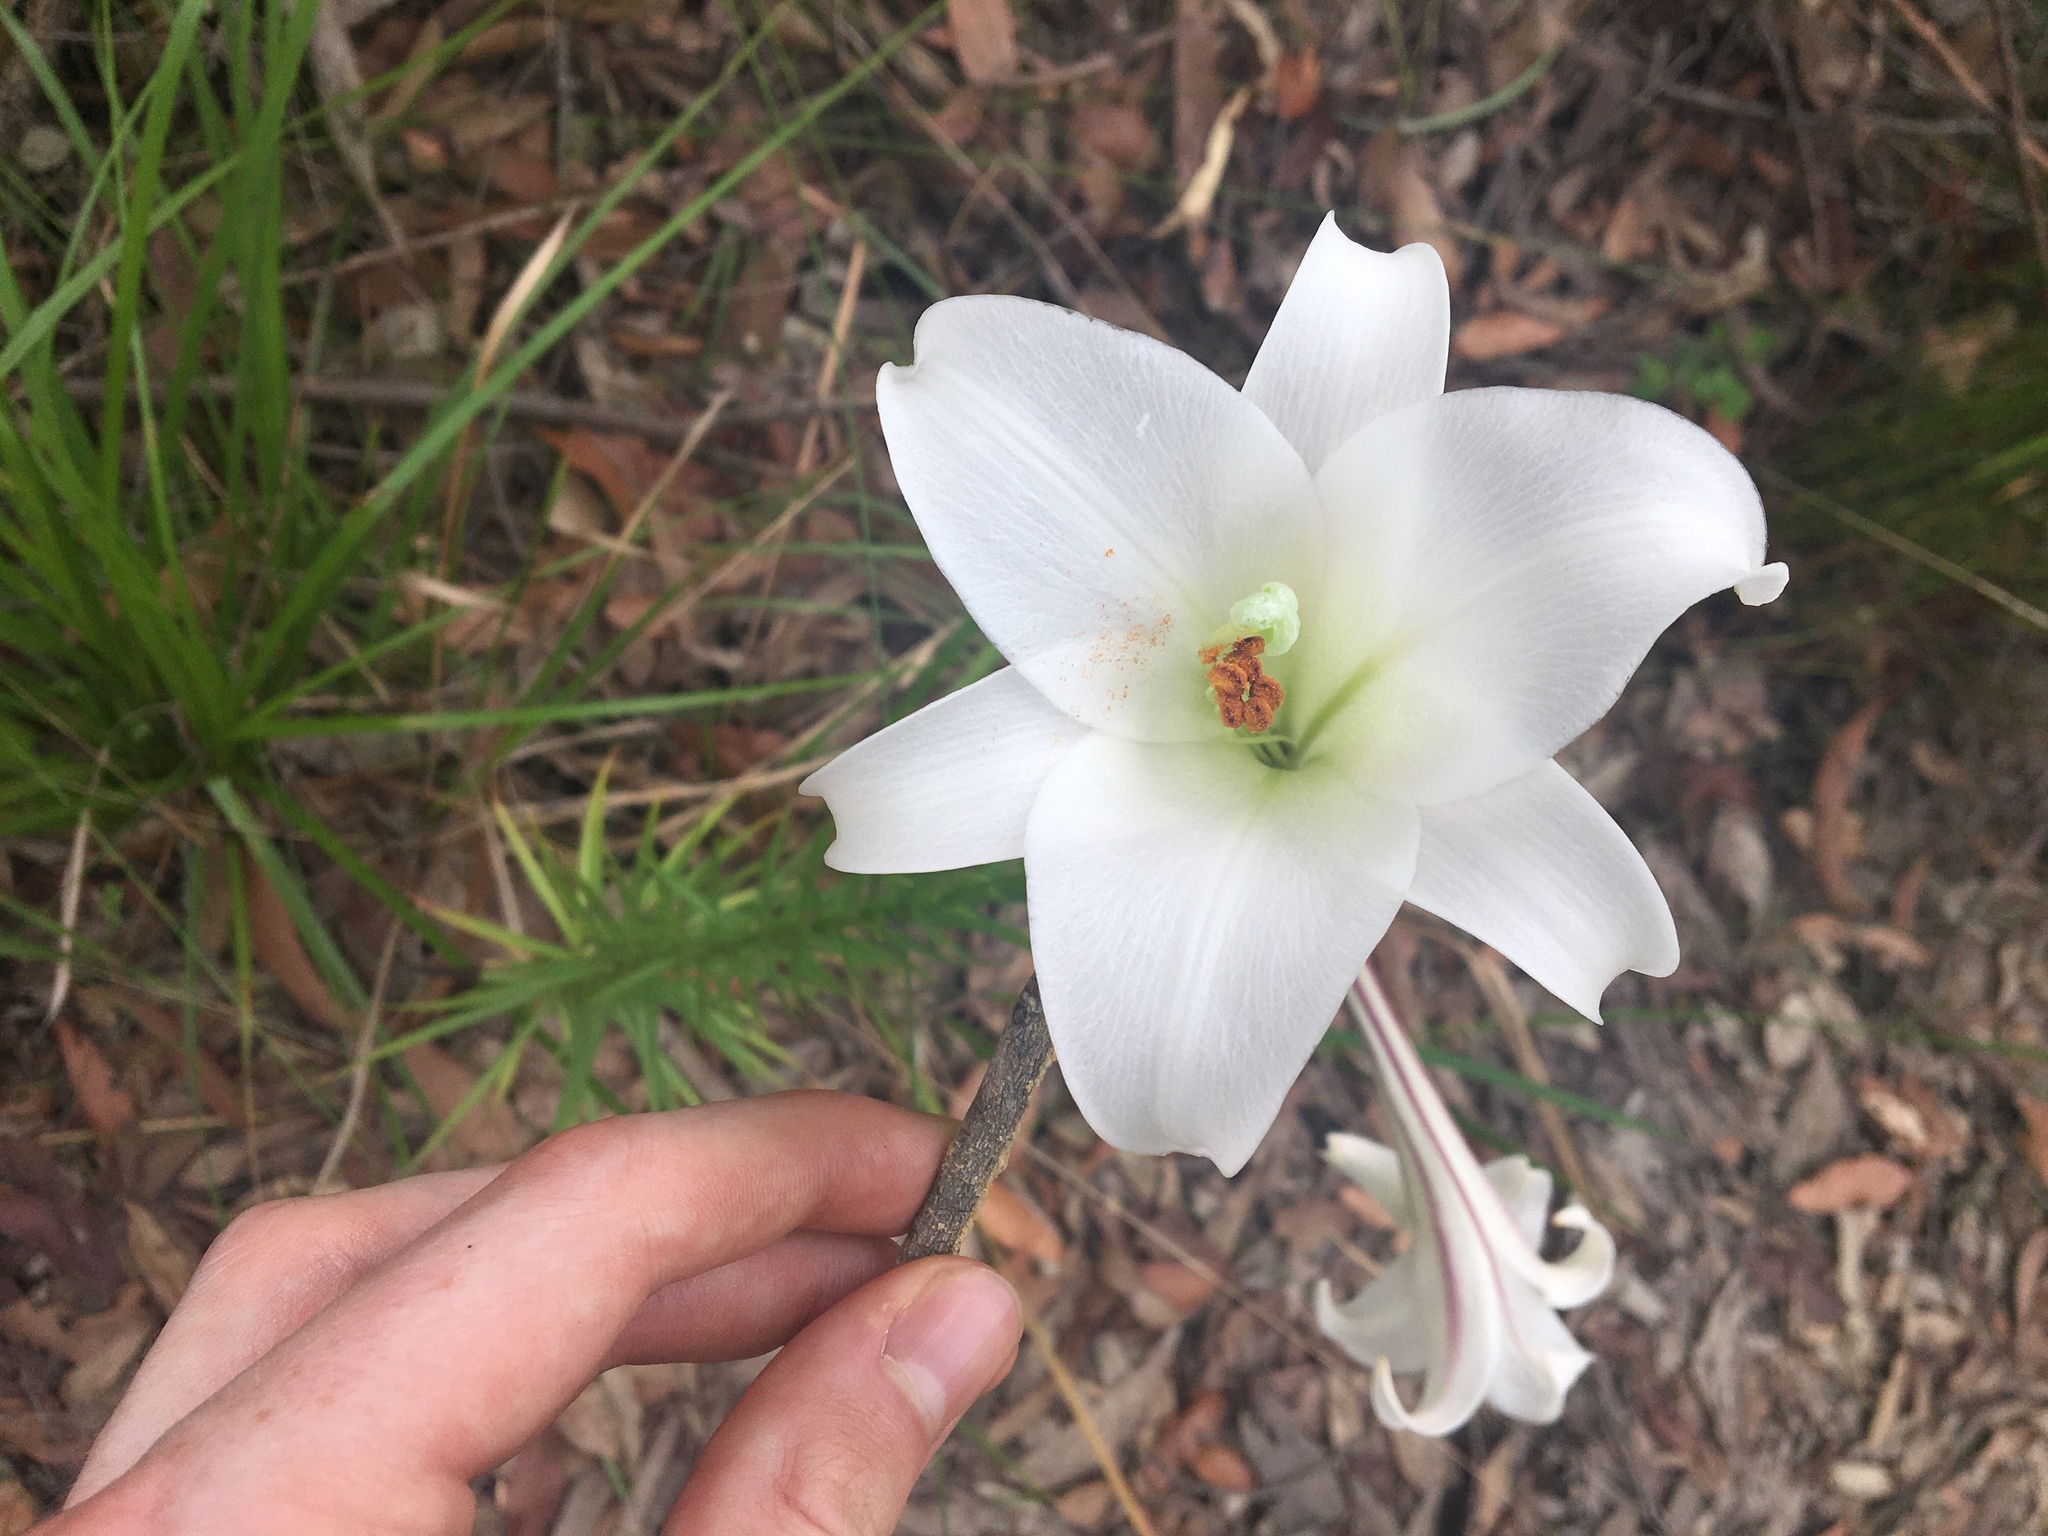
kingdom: Plantae
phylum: Tracheophyta
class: Liliopsida
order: Liliales
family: Liliaceae
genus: Lilium
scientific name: Lilium formosanum
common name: Formosa lily
